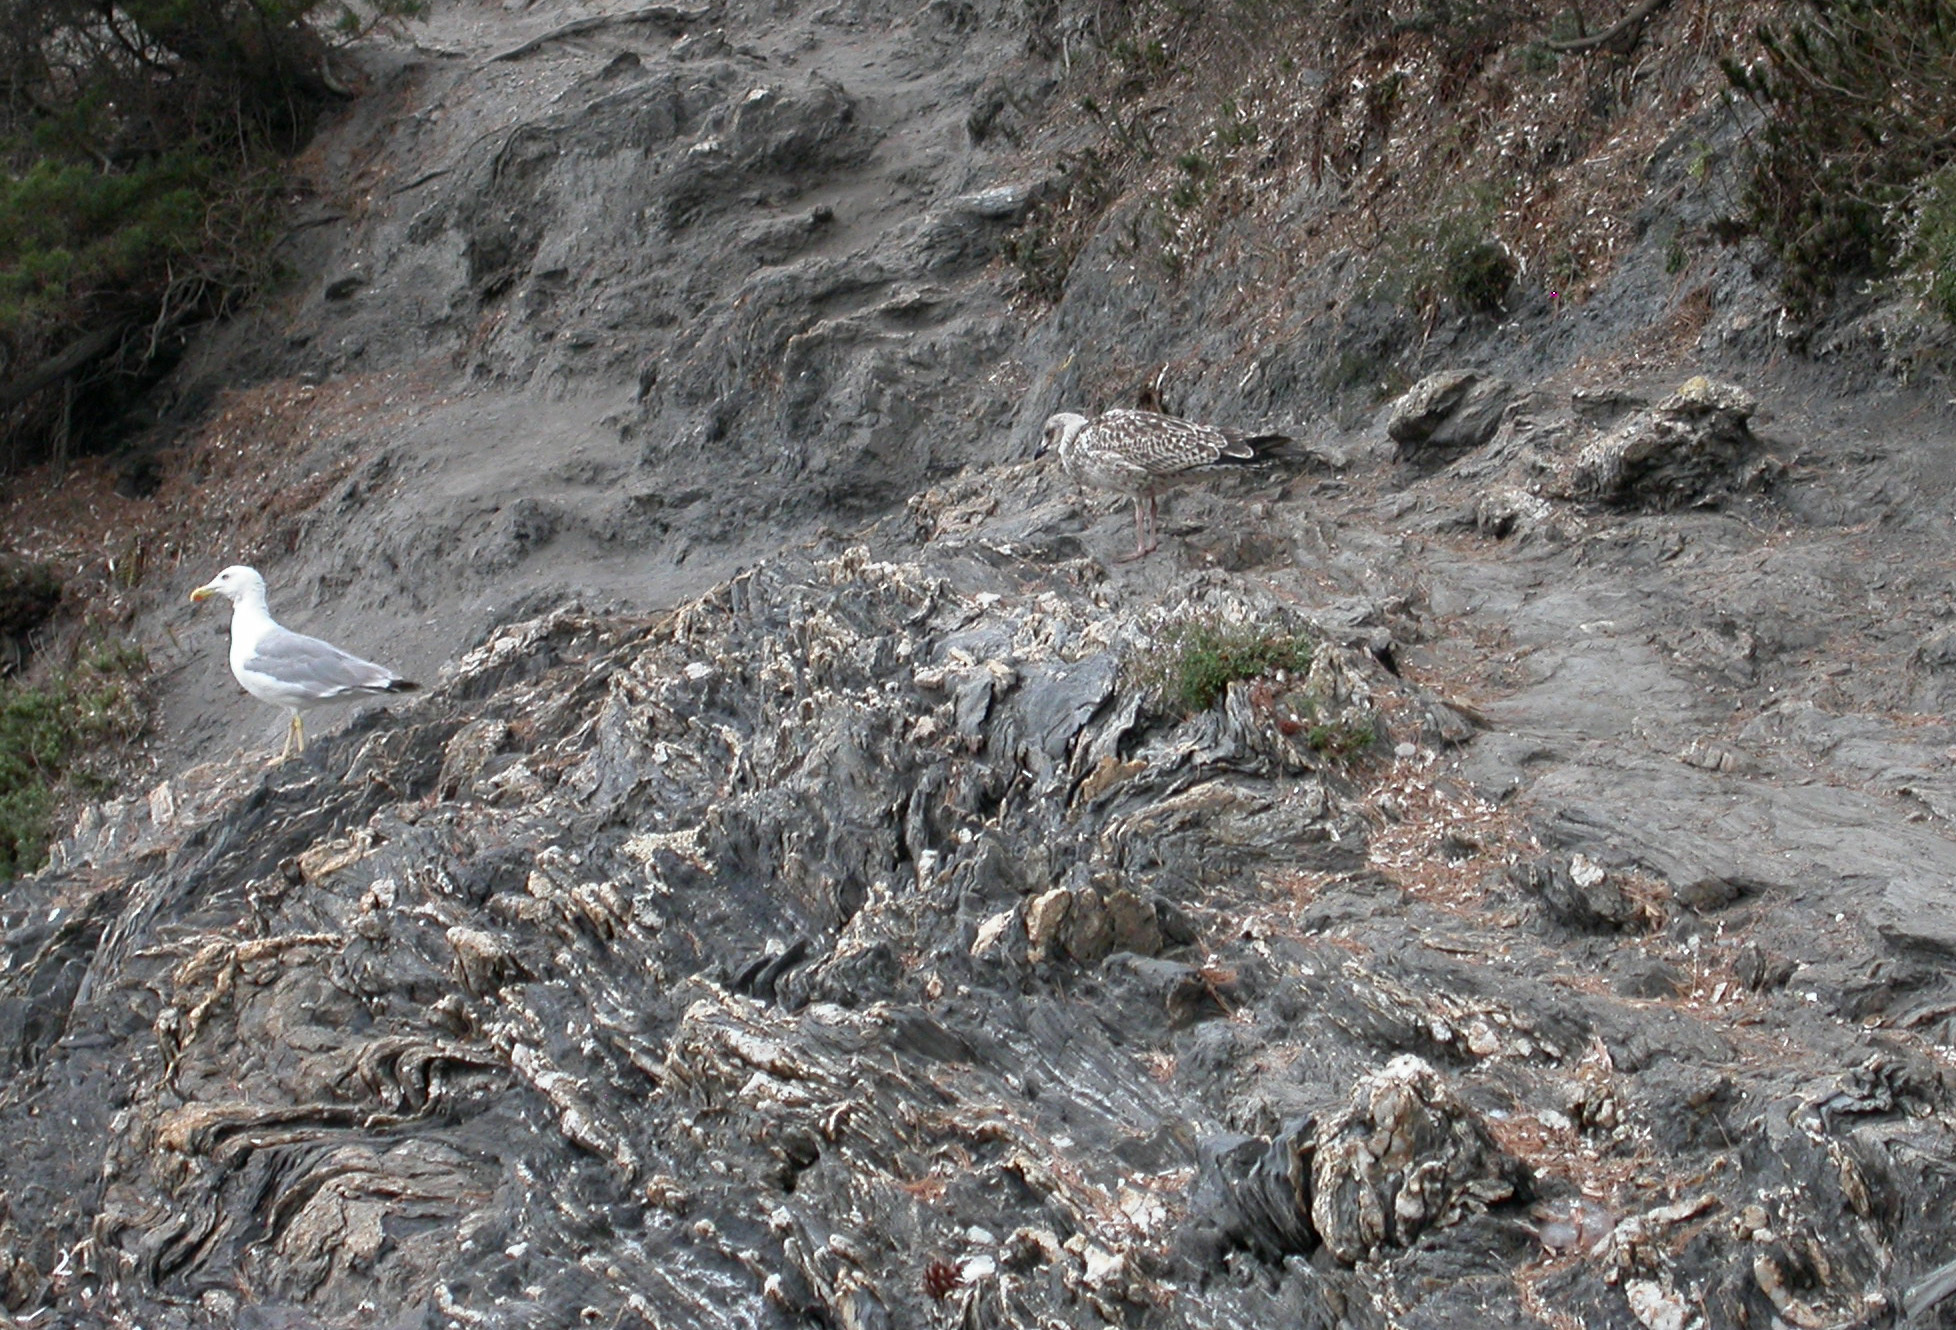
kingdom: Animalia
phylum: Chordata
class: Aves
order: Charadriiformes
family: Laridae
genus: Larus
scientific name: Larus michahellis
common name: Yellow-legged gull
